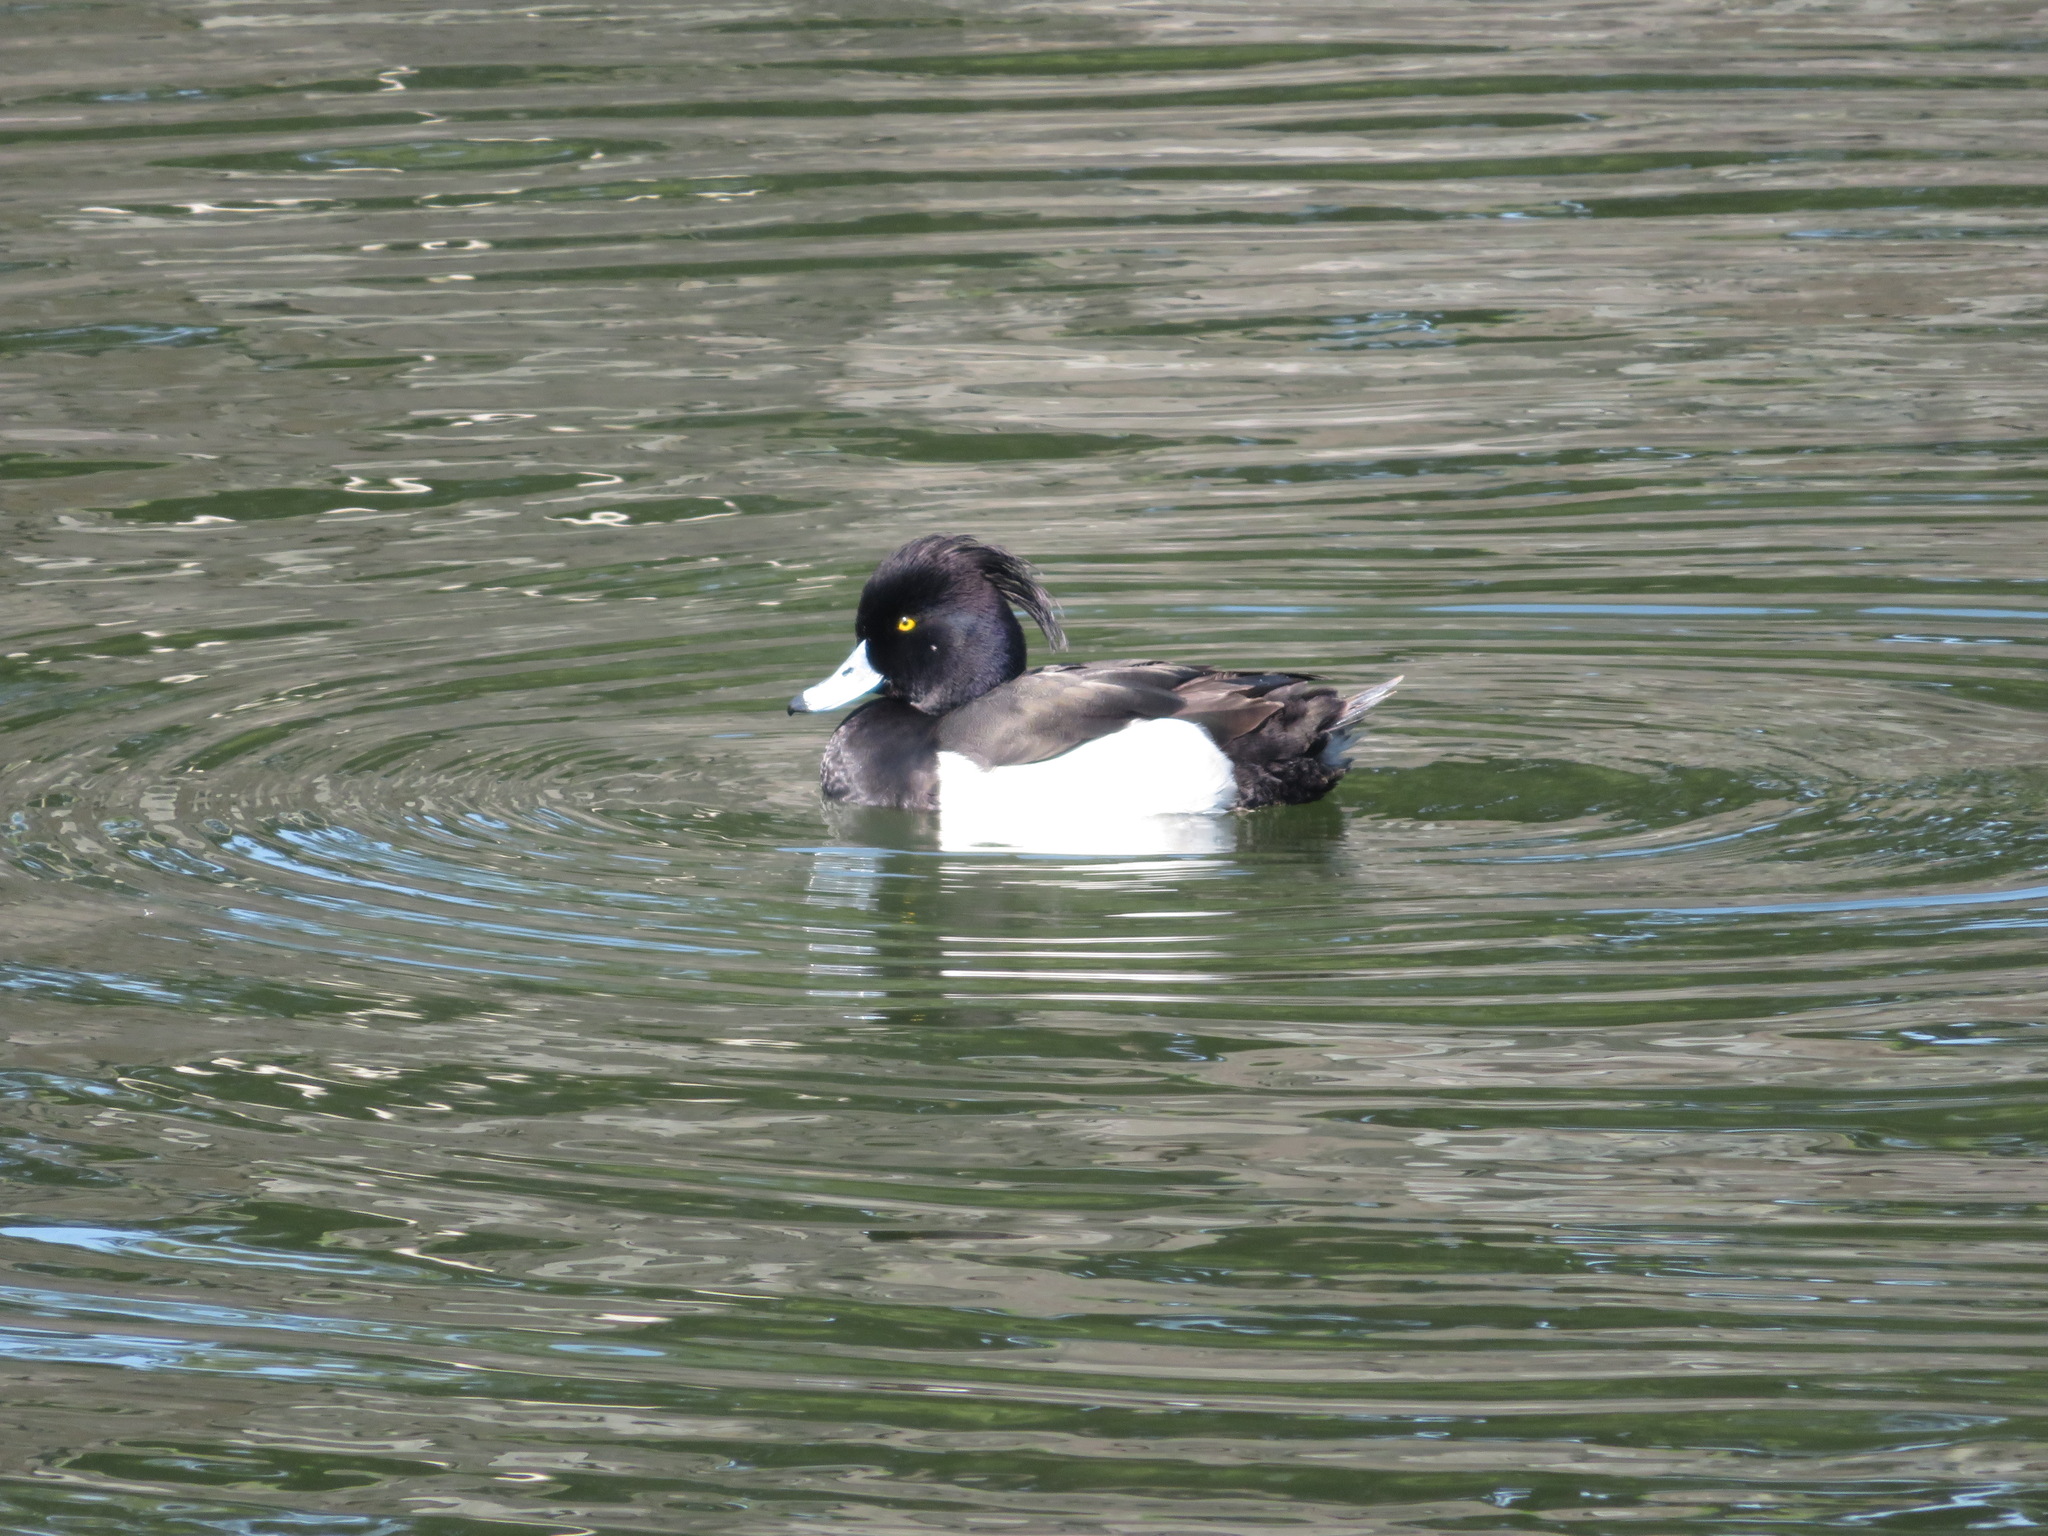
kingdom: Animalia
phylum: Chordata
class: Aves
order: Anseriformes
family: Anatidae
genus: Aythya
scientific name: Aythya fuligula
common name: Tufted duck
